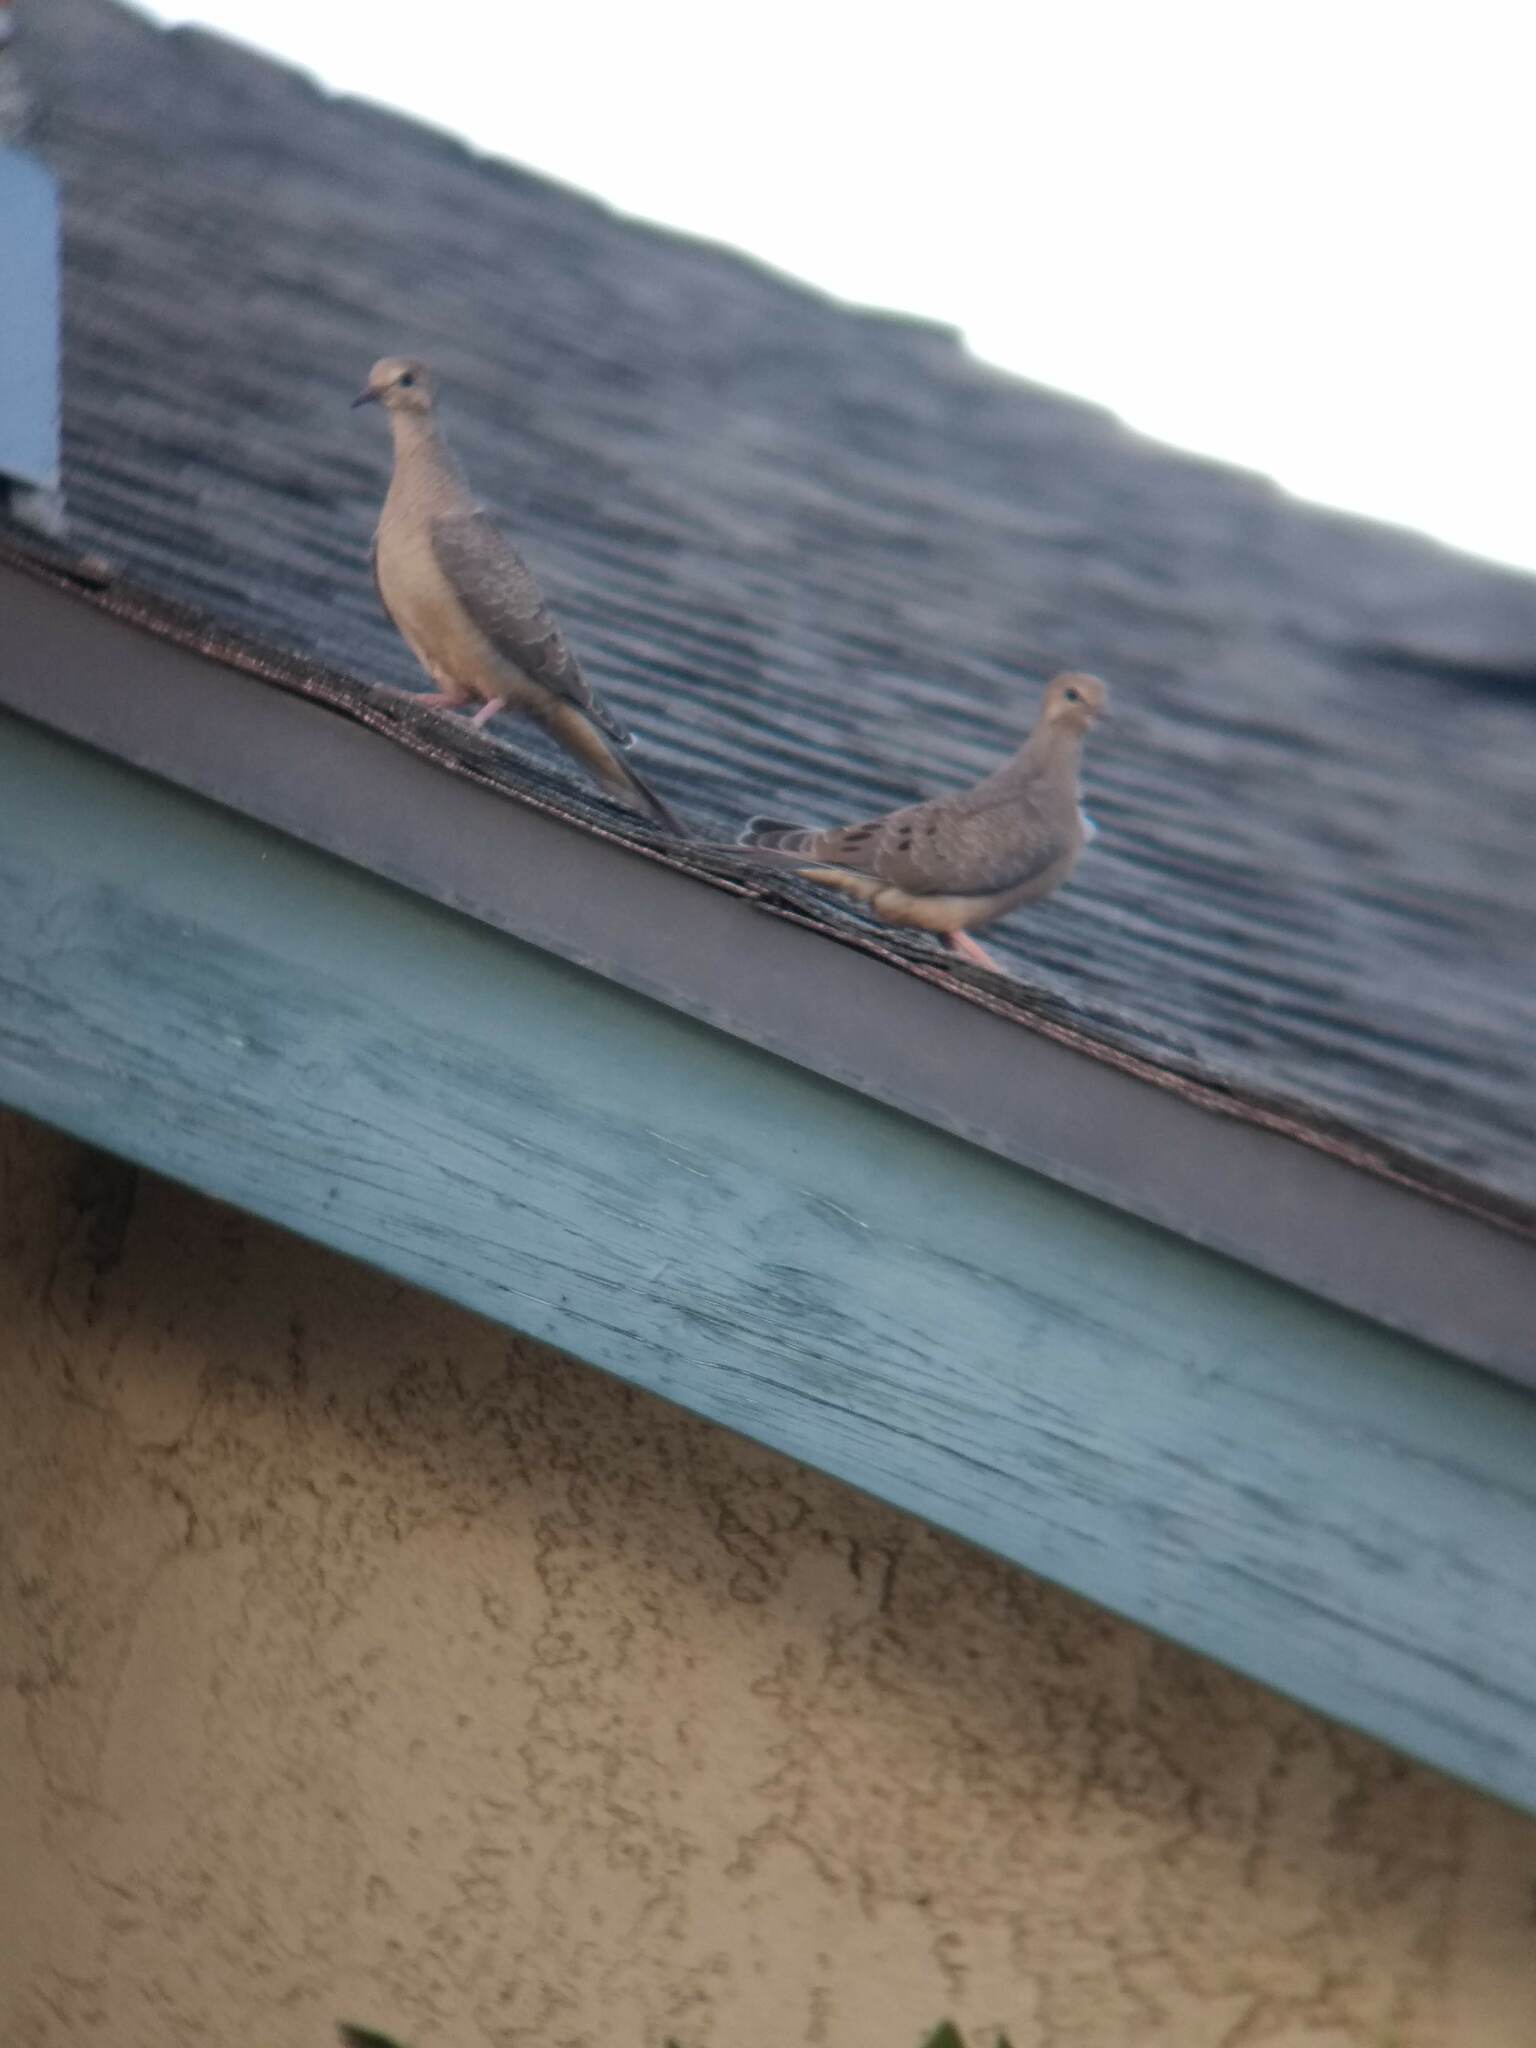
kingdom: Animalia
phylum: Chordata
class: Aves
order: Columbiformes
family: Columbidae
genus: Zenaida
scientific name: Zenaida macroura
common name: Mourning dove
